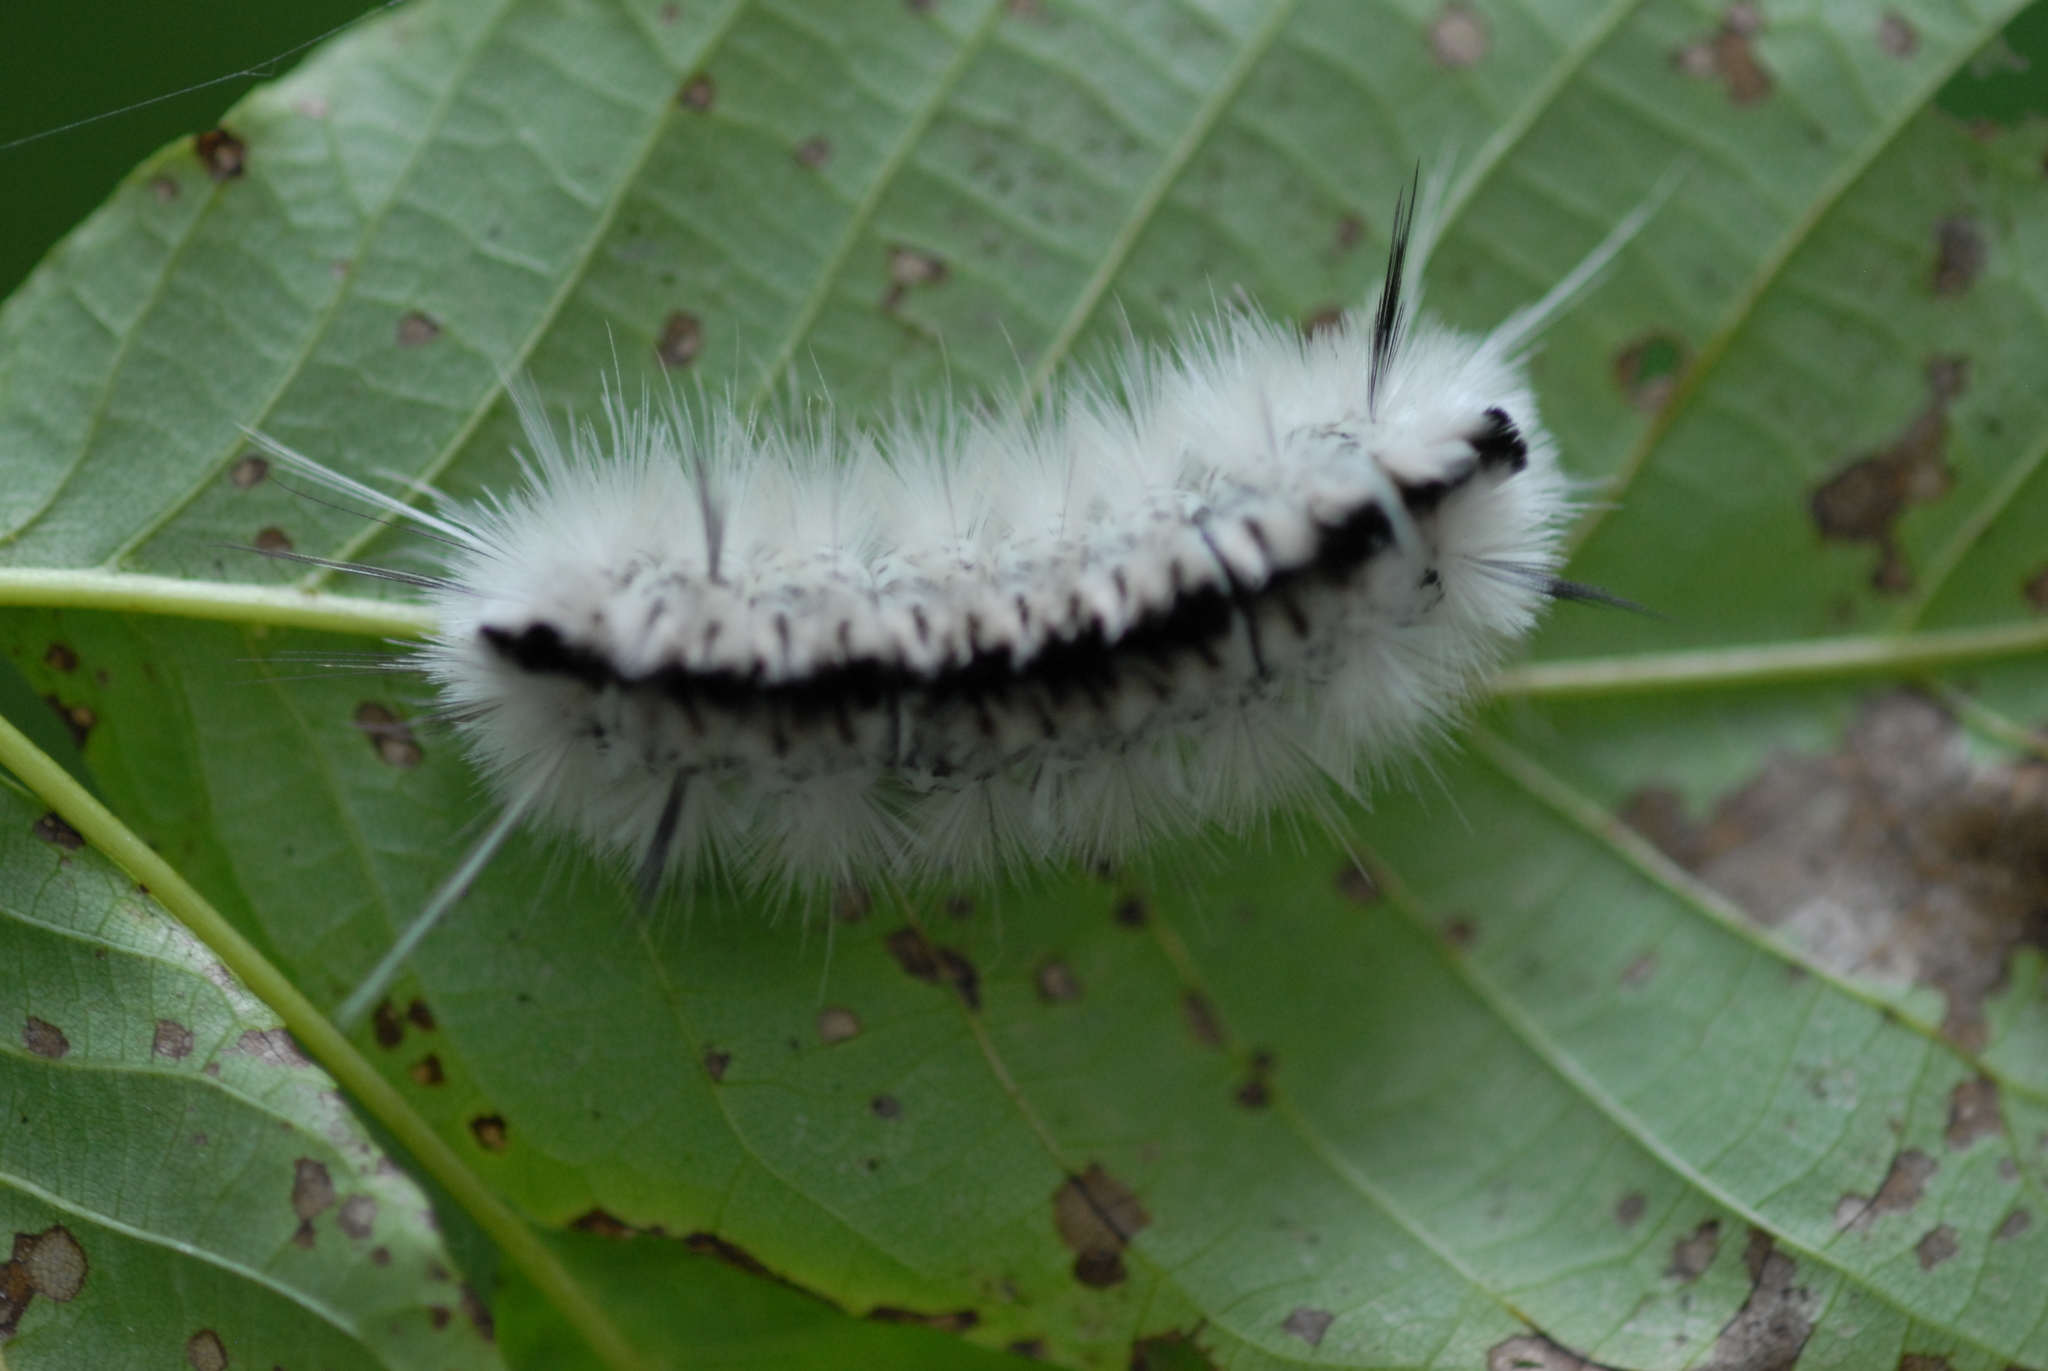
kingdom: Animalia
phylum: Arthropoda
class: Insecta
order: Lepidoptera
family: Erebidae
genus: Lophocampa
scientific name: Lophocampa caryae
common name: Hickory tussock moth
